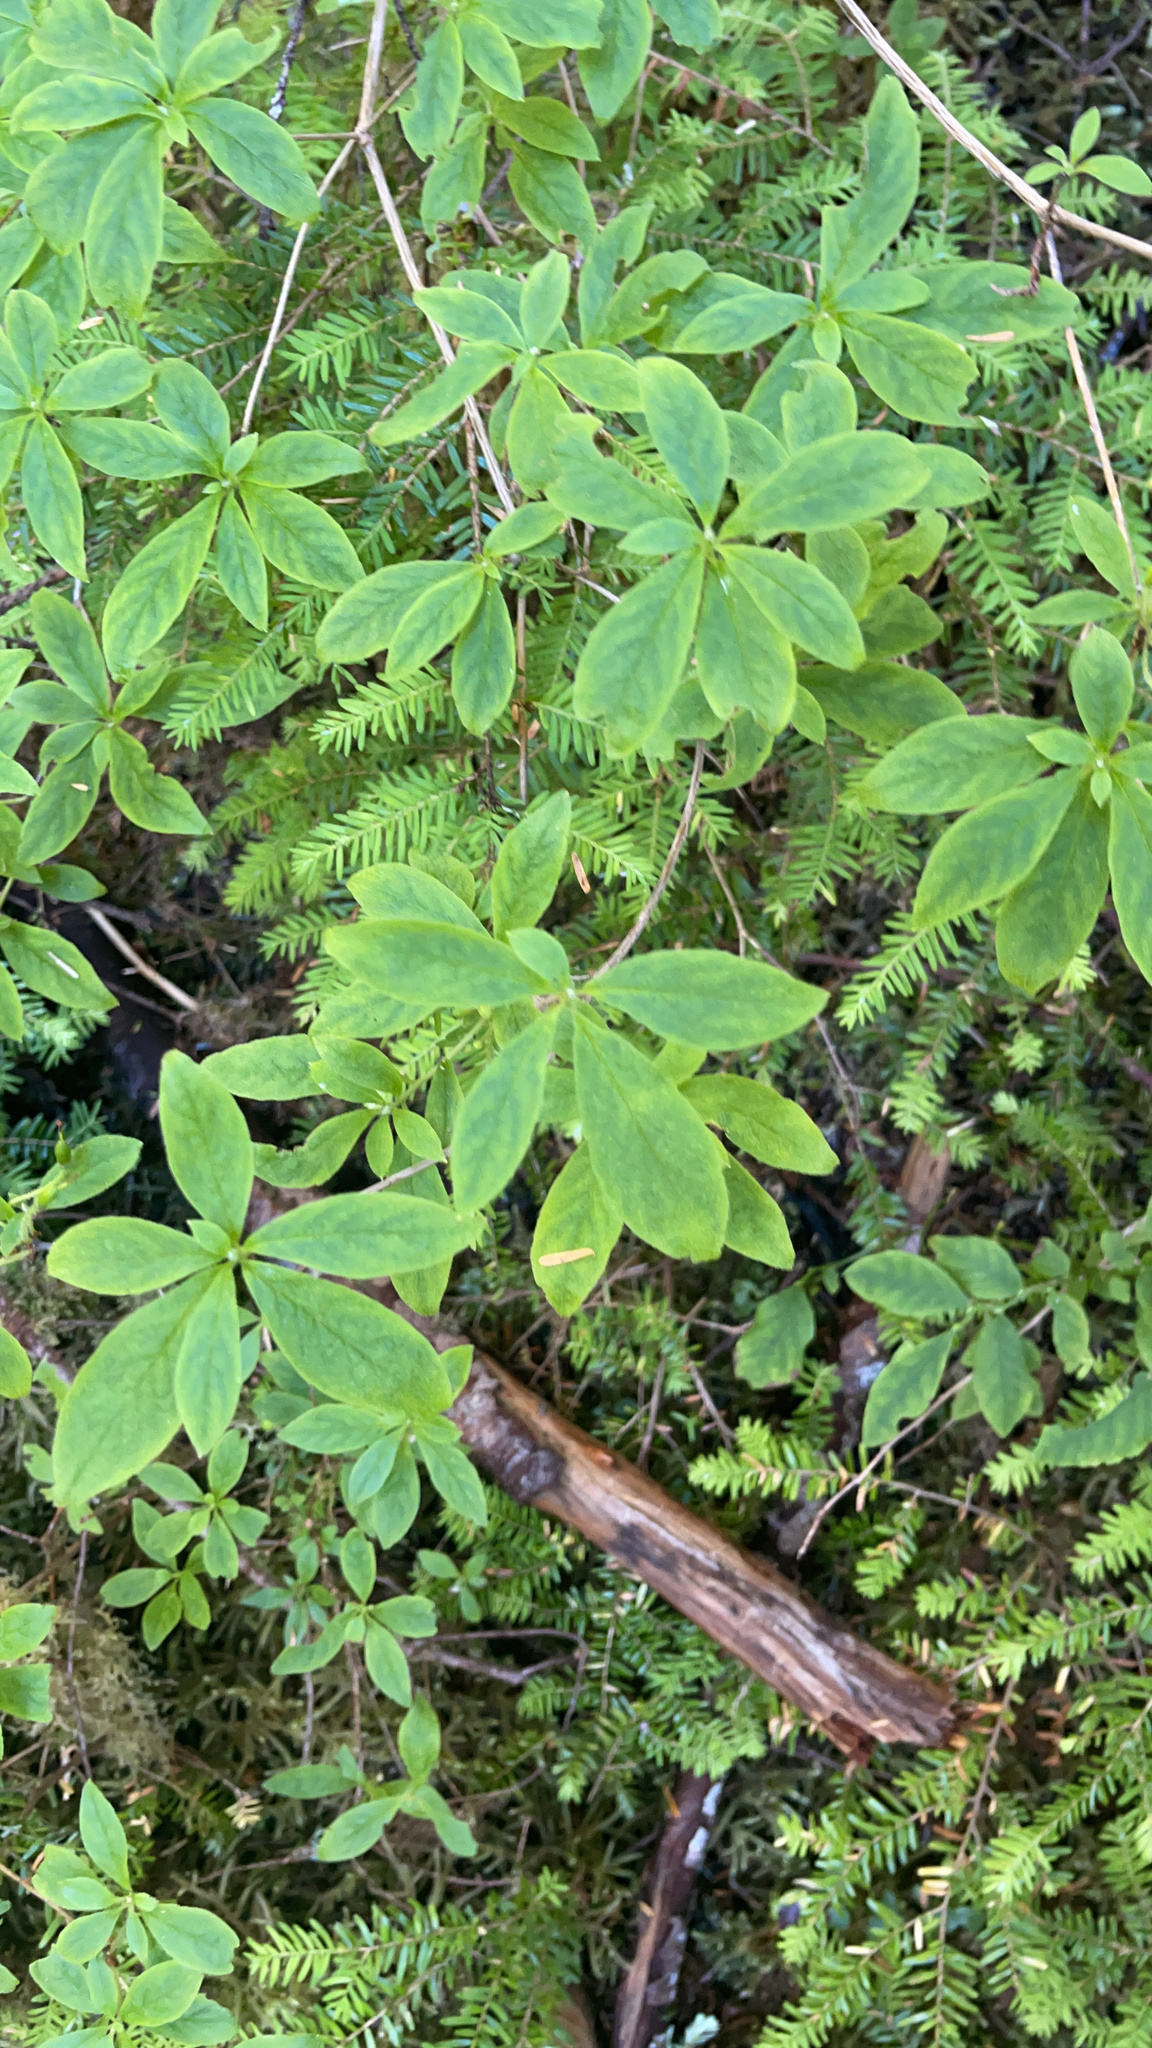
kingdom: Plantae
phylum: Tracheophyta
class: Magnoliopsida
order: Ericales
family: Ericaceae
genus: Rhododendron
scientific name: Rhododendron menziesii
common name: Pacific menziesia
